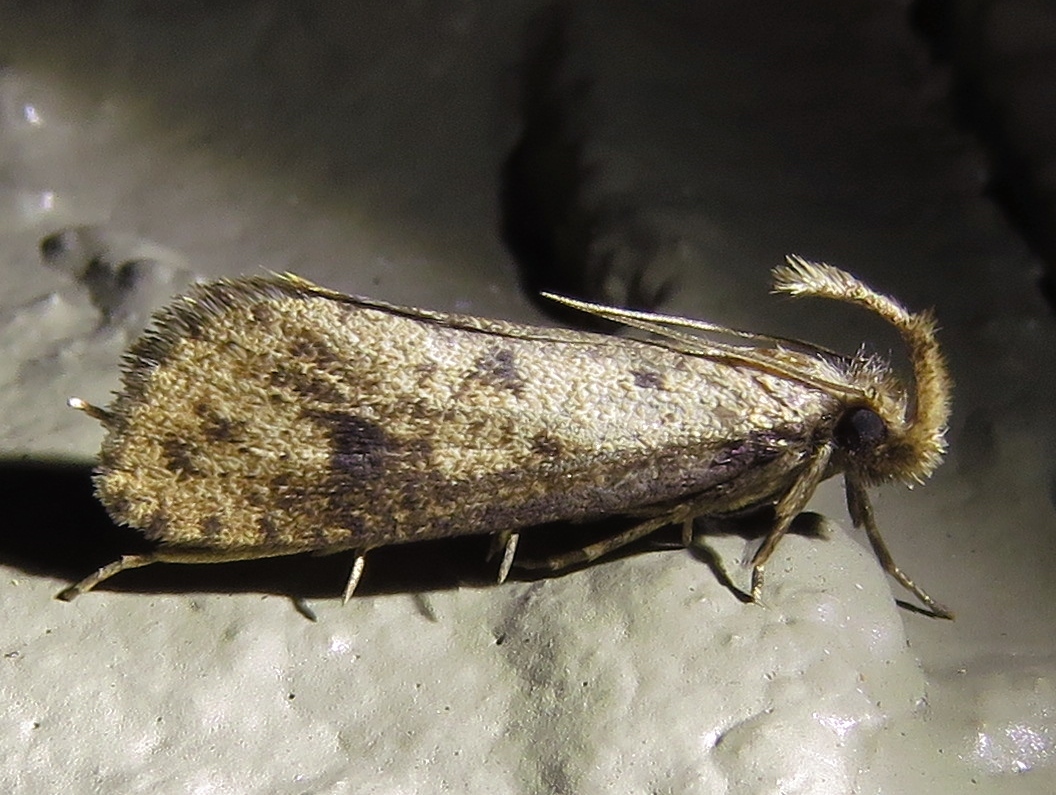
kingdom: Animalia
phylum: Arthropoda
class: Insecta
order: Lepidoptera
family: Tineidae
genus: Acrolophus
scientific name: Acrolophus mortipennella
